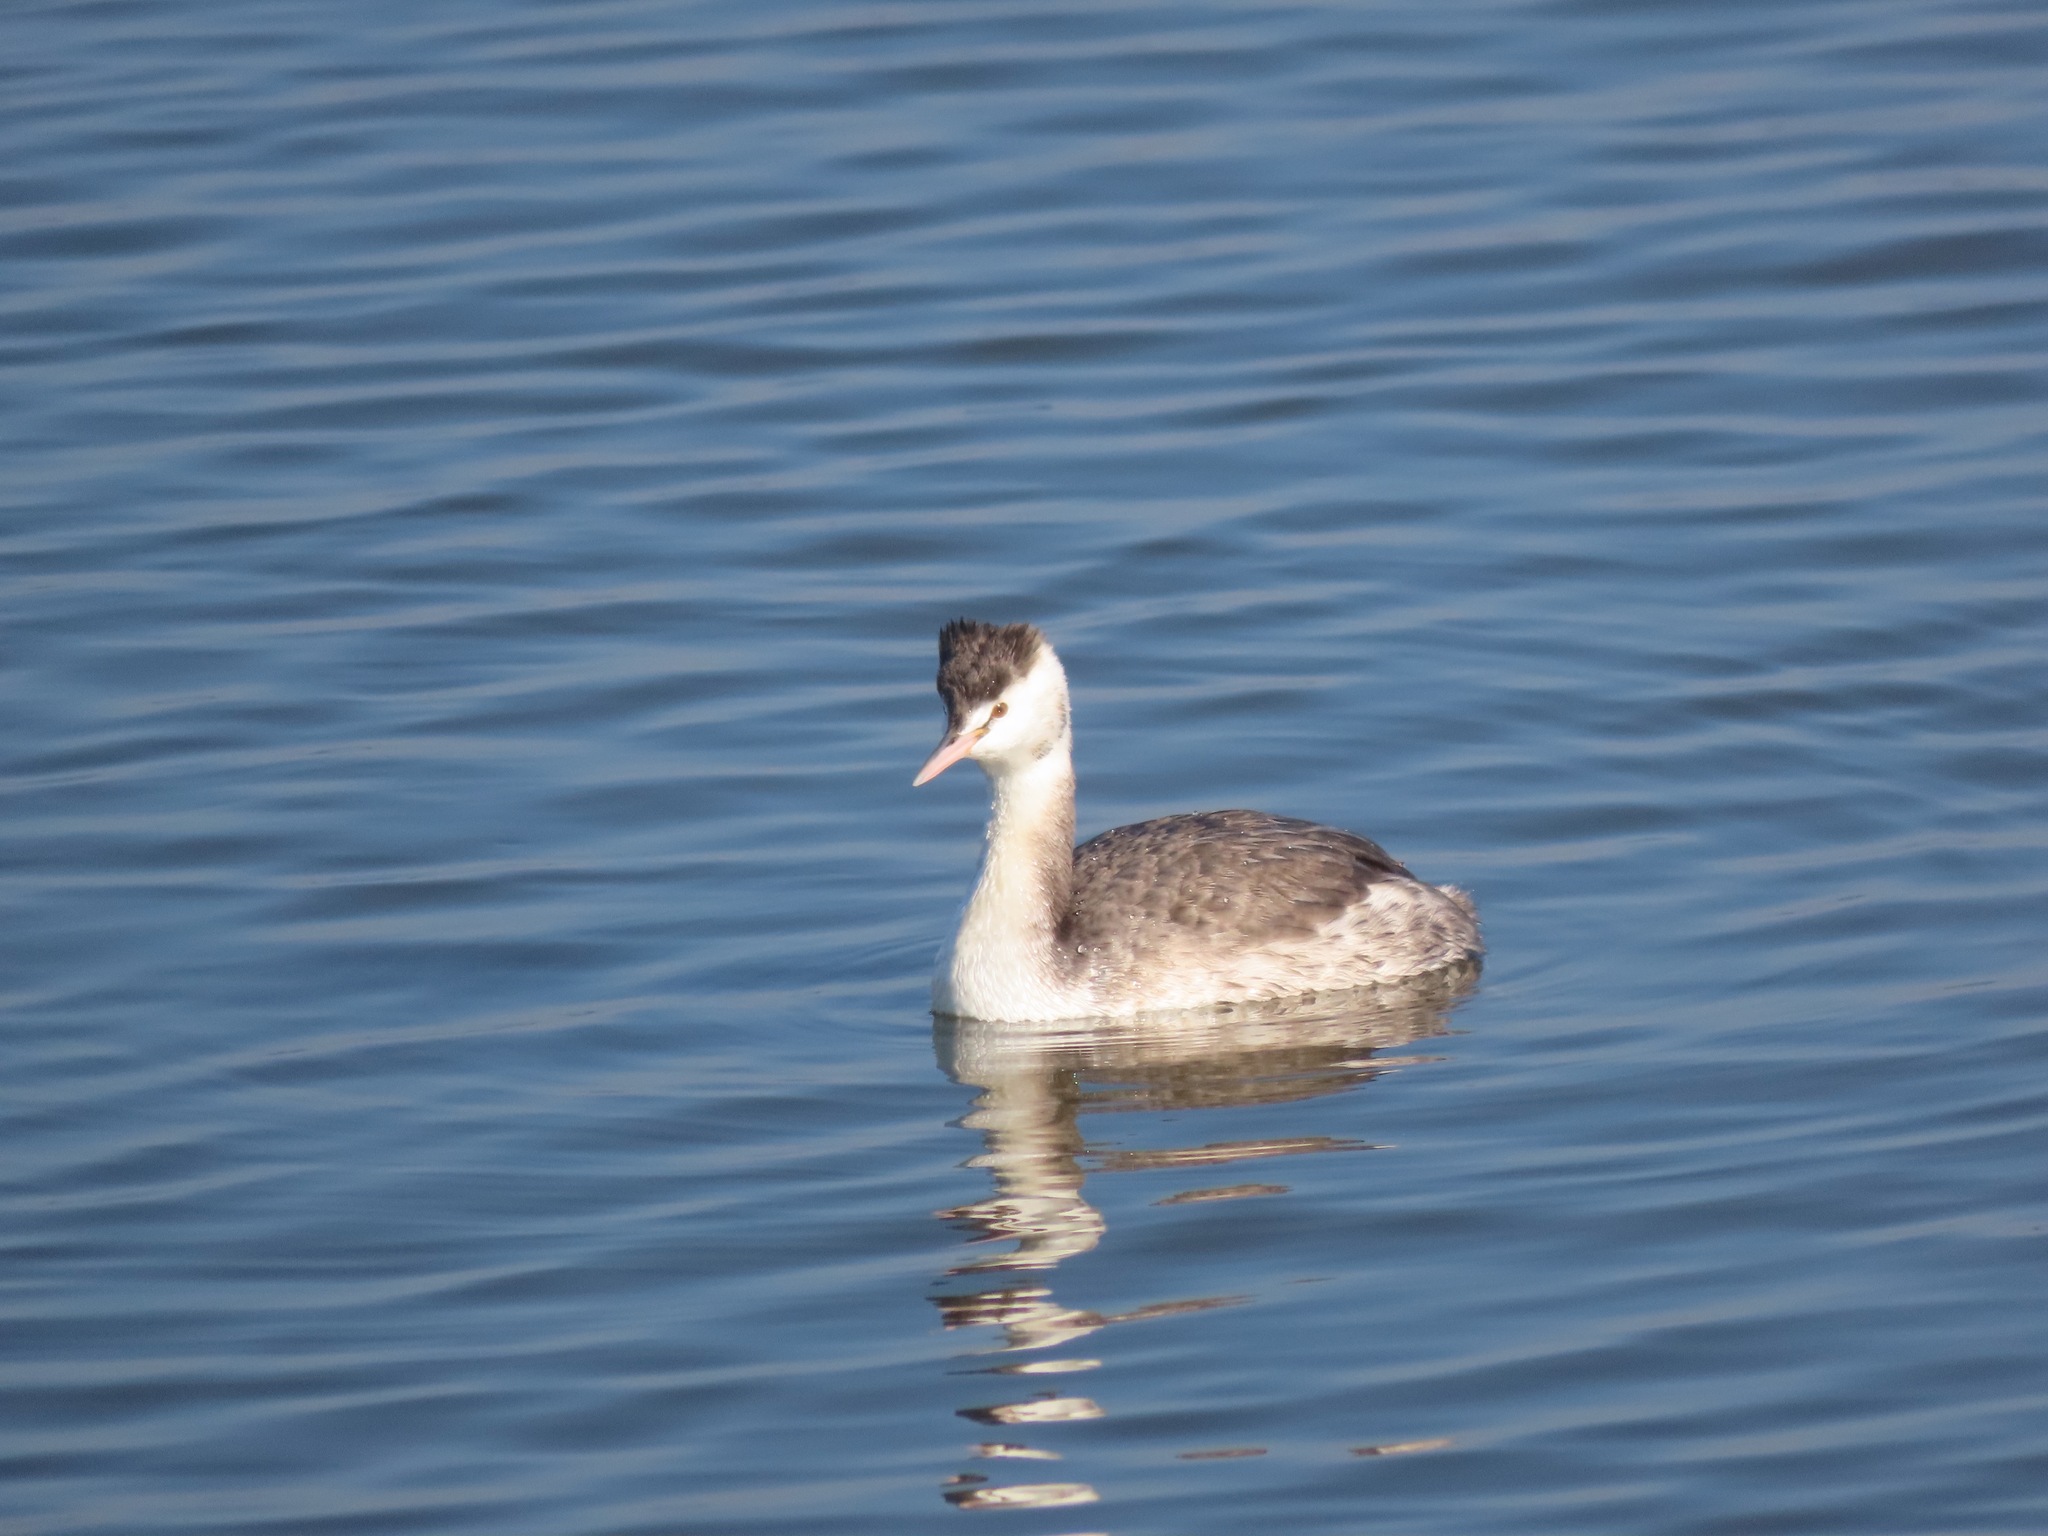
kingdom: Animalia
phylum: Chordata
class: Aves
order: Podicipediformes
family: Podicipedidae
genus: Podiceps
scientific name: Podiceps cristatus
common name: Great crested grebe
